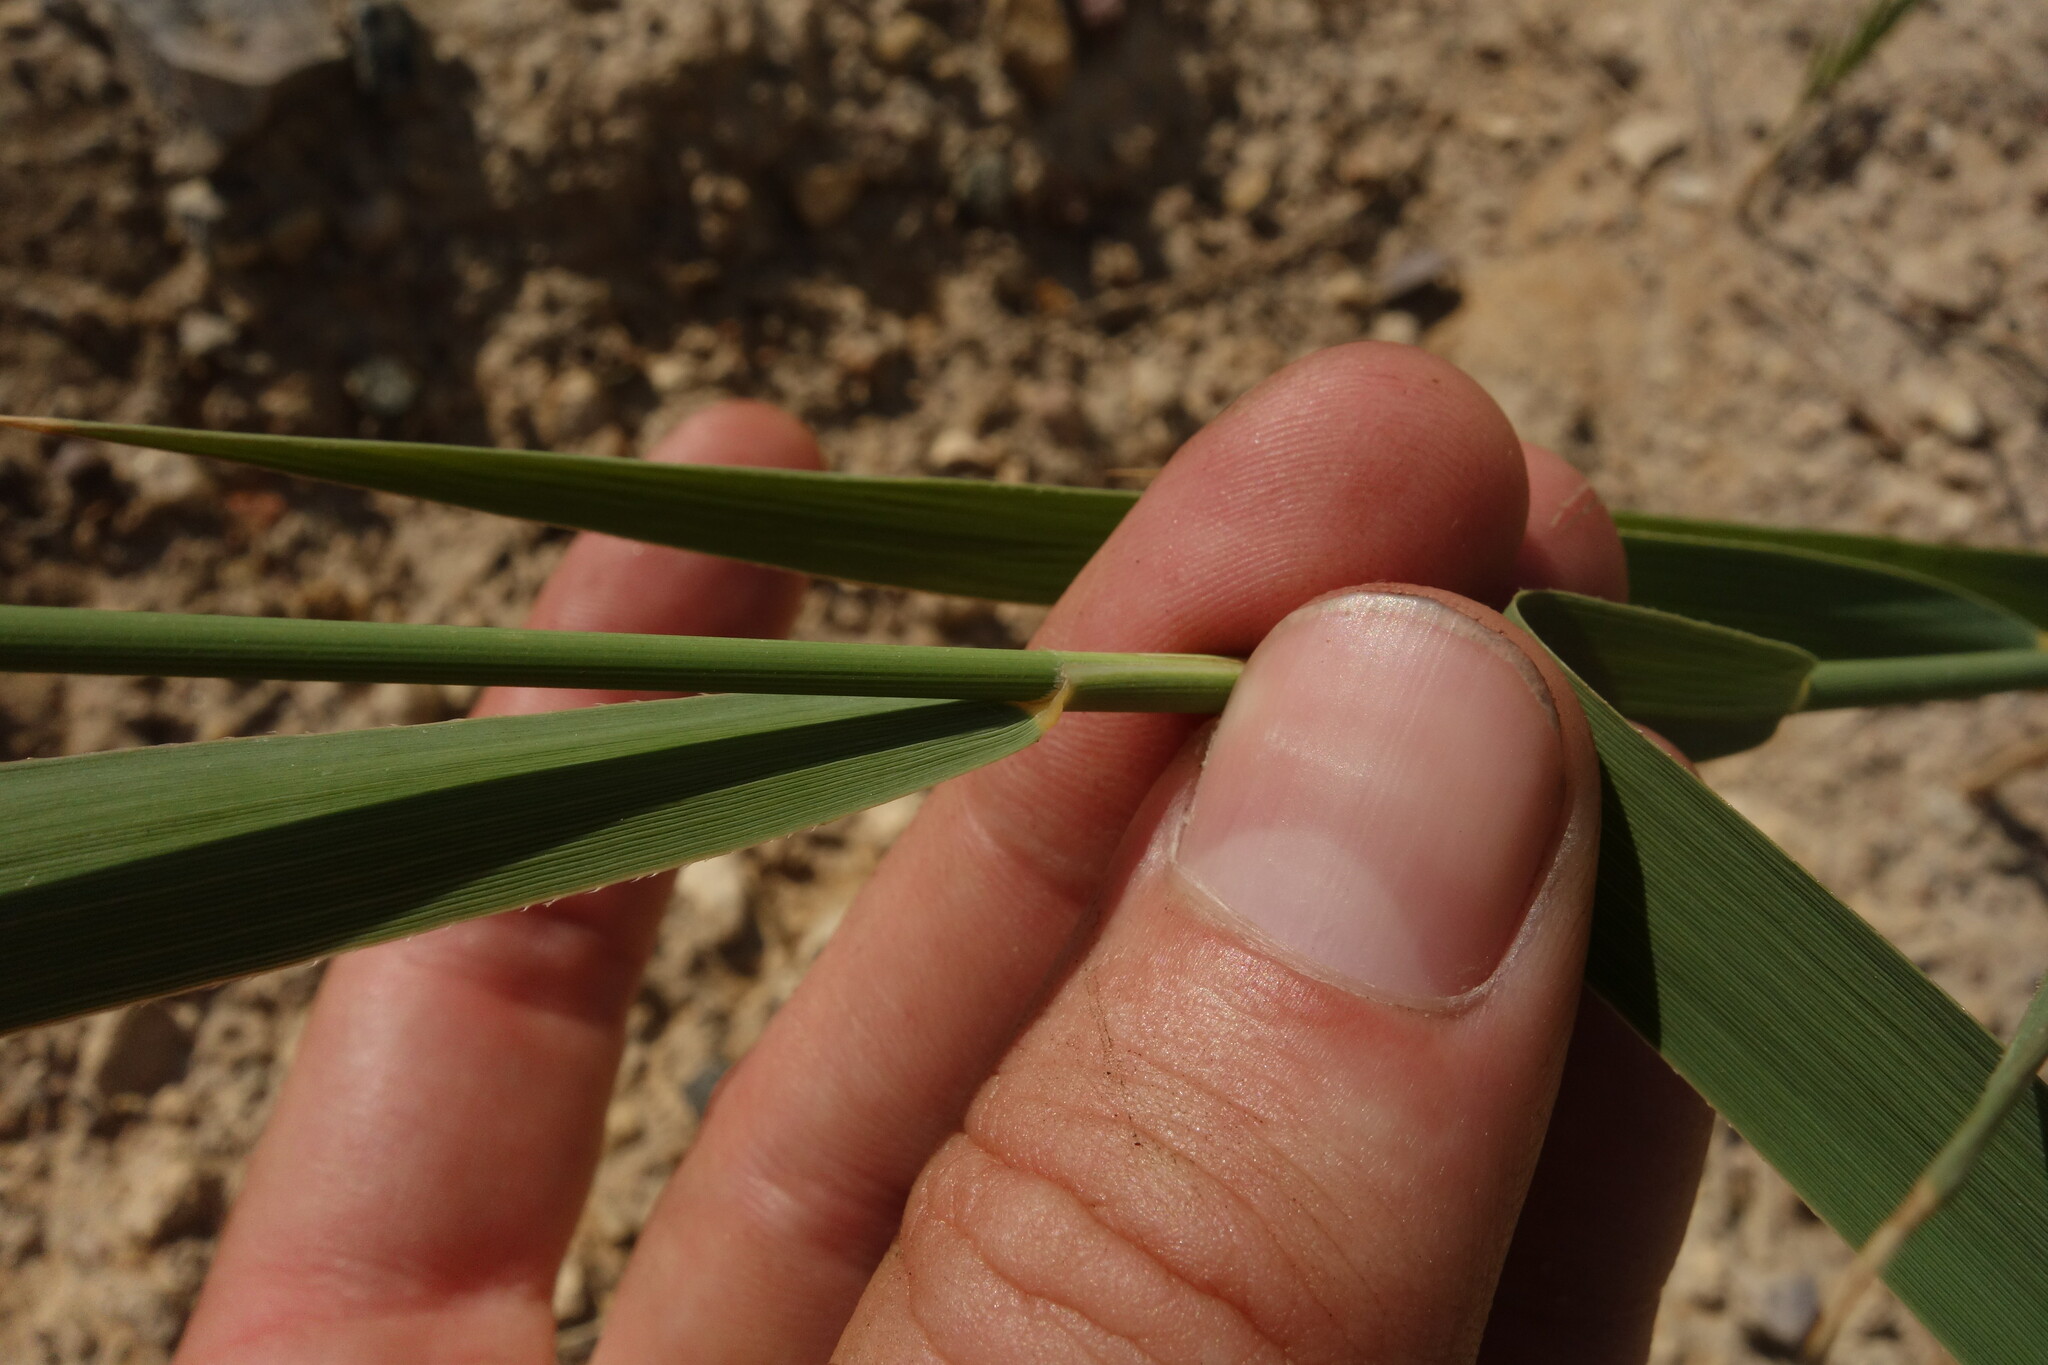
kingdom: Plantae
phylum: Tracheophyta
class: Liliopsida
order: Poales
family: Poaceae
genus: Phragmites
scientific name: Phragmites australis
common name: Common reed
